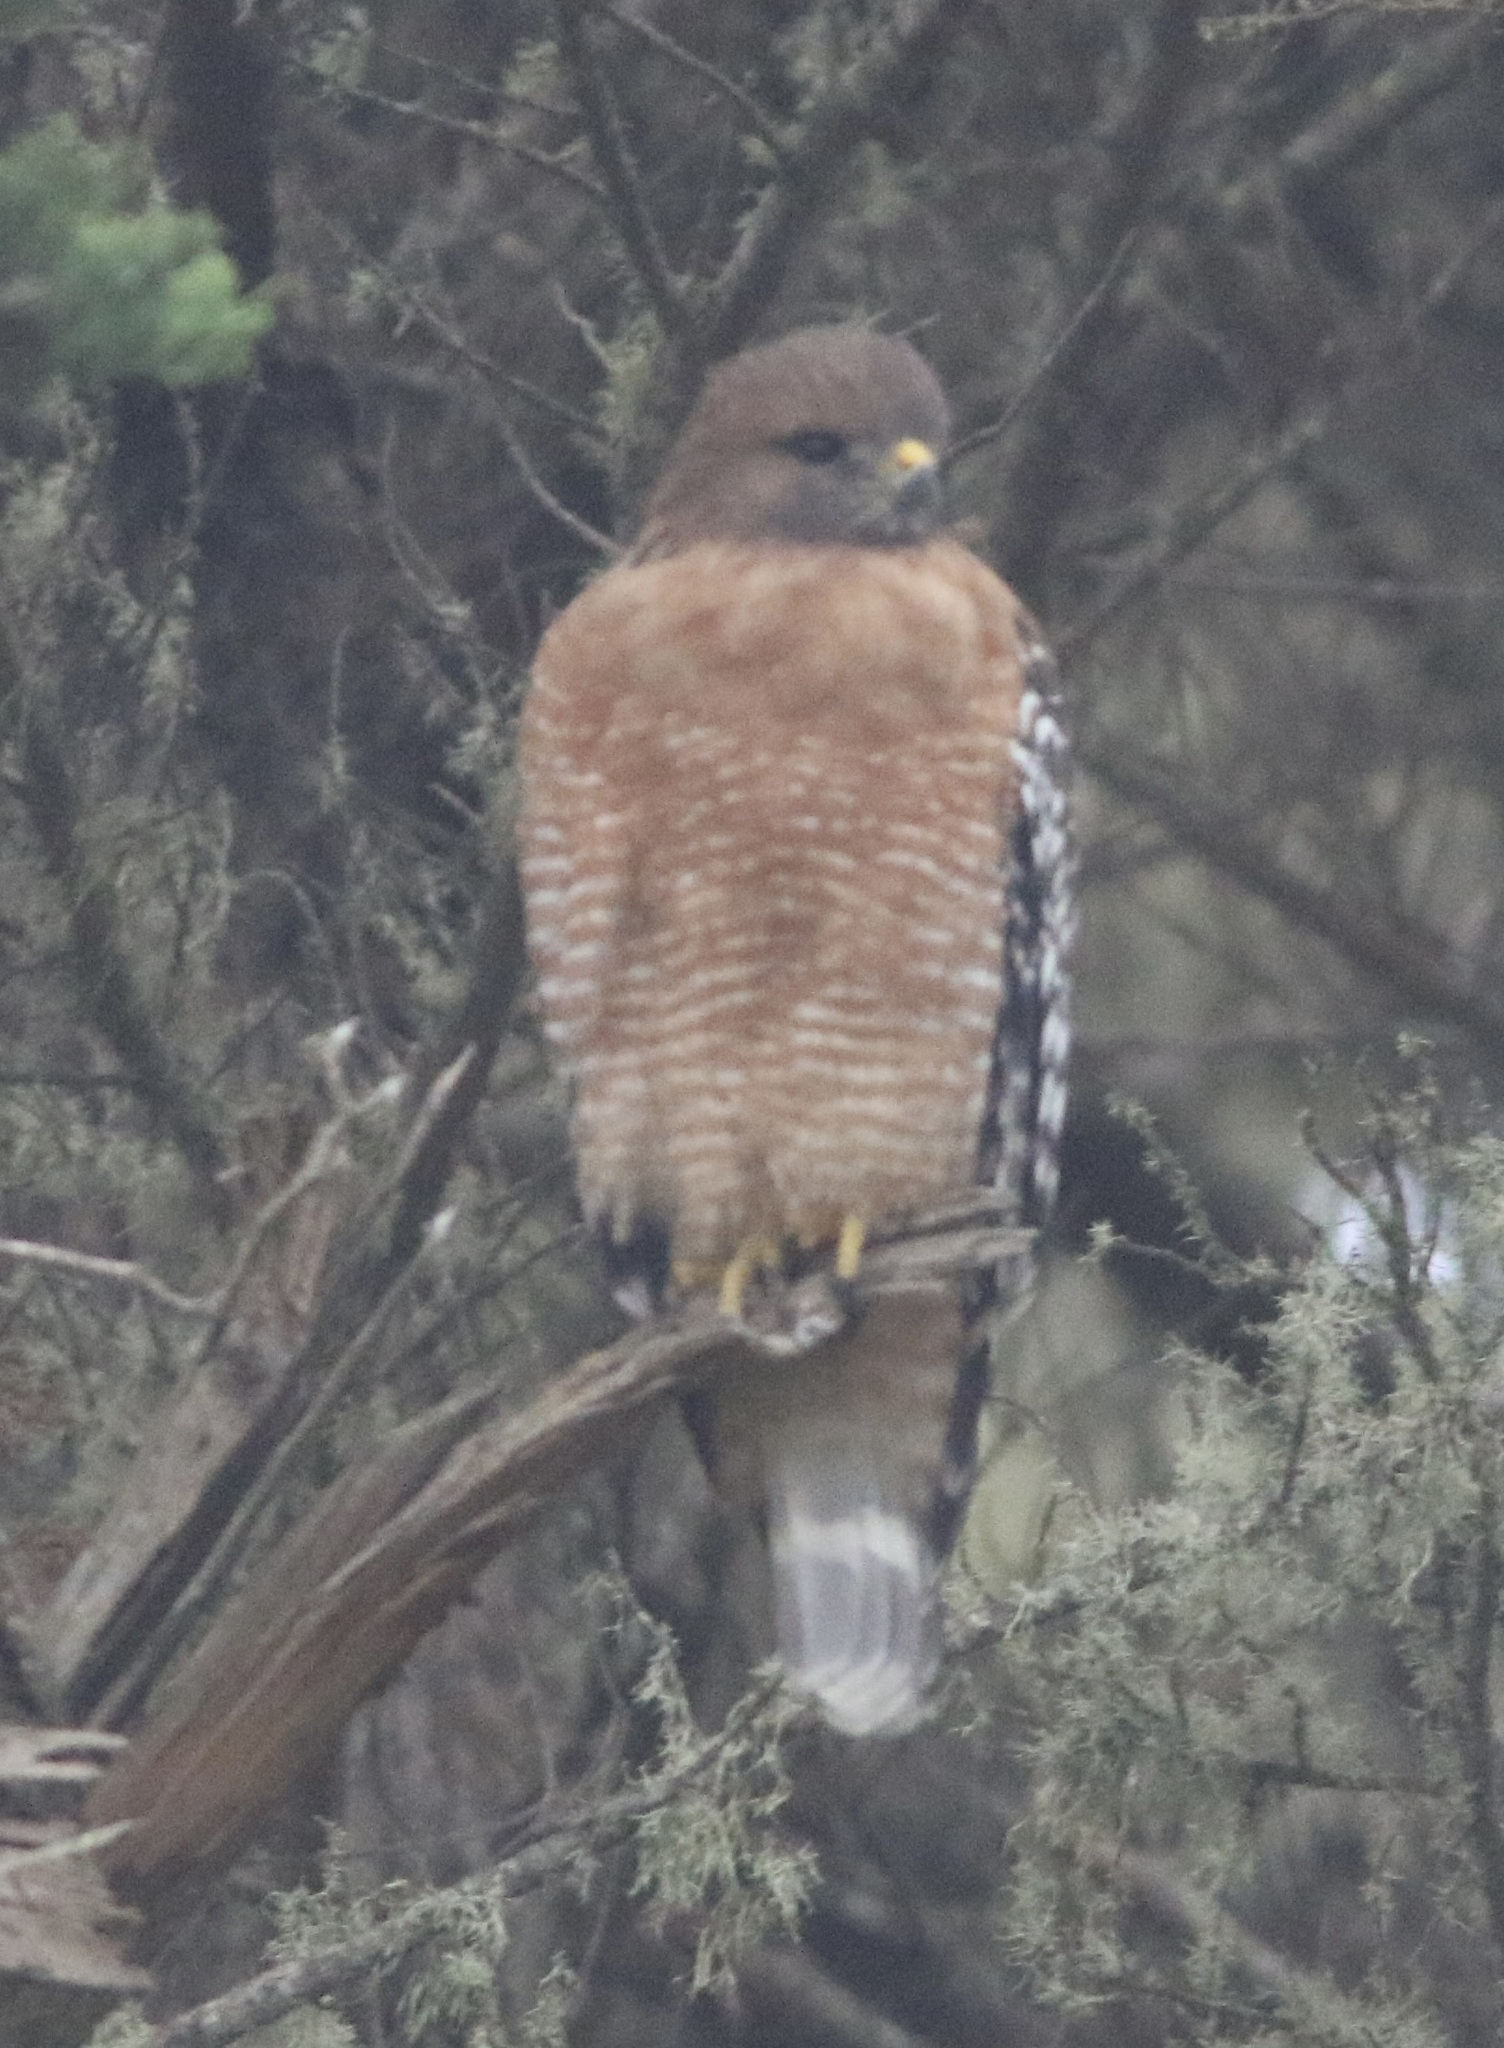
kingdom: Animalia
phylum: Chordata
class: Aves
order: Accipitriformes
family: Accipitridae
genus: Buteo
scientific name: Buteo lineatus
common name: Red-shouldered hawk
